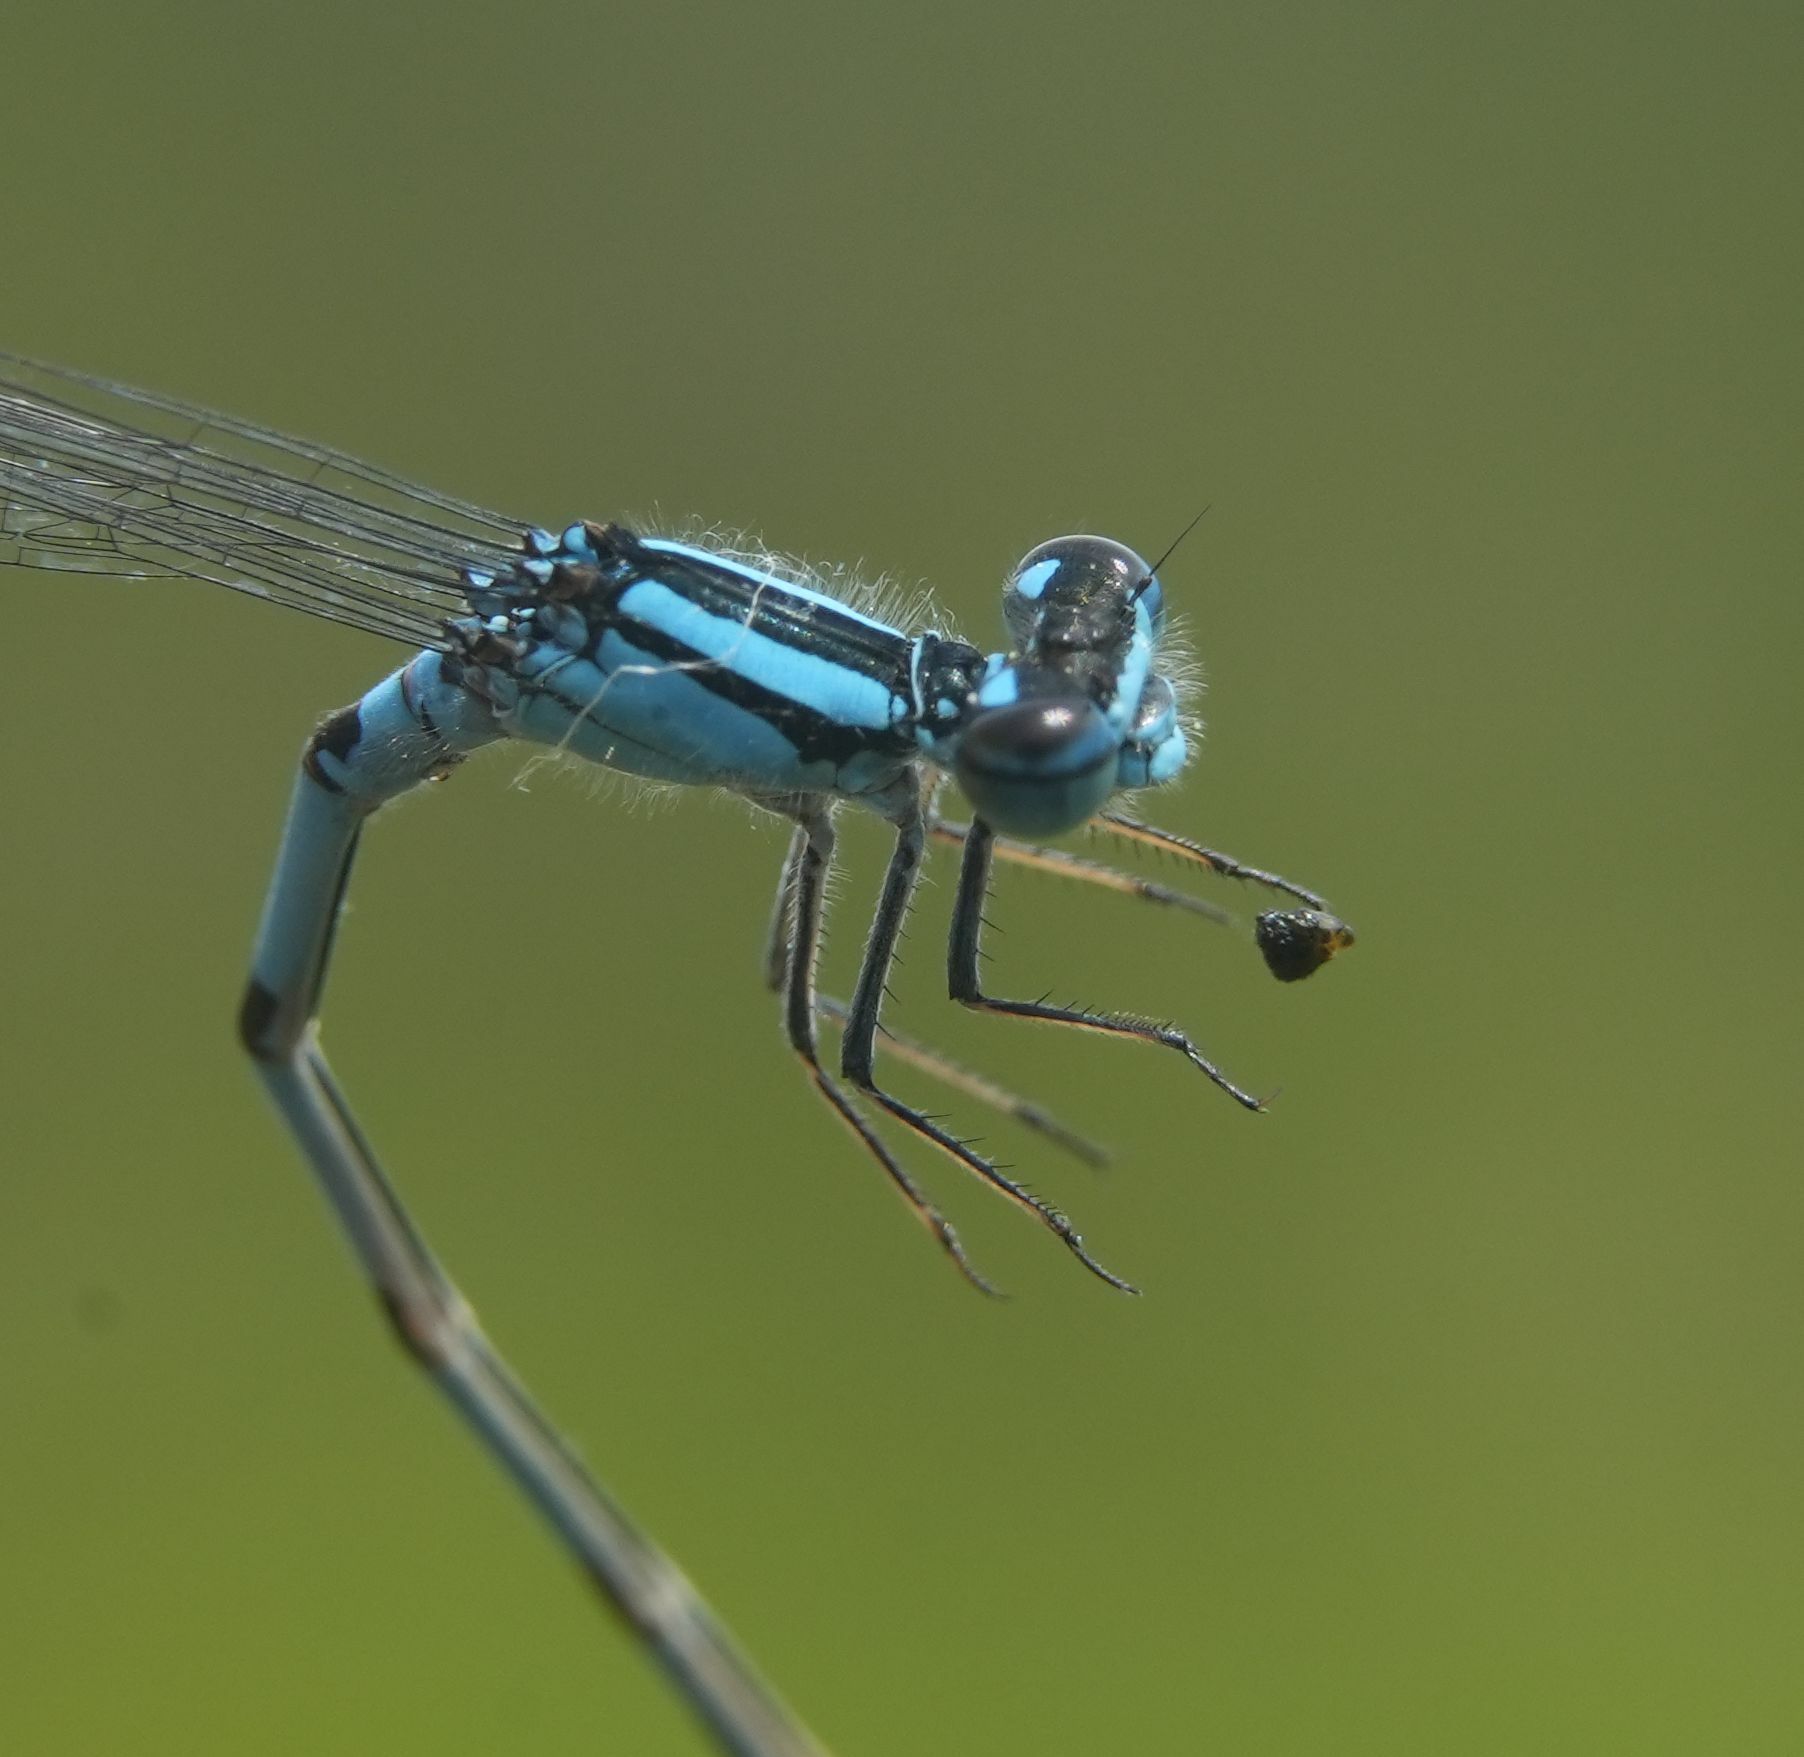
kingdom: Animalia
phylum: Arthropoda
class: Insecta
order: Odonata
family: Coenagrionidae
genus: Enallagma
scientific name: Enallagma ebrium
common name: Marsh bluet
